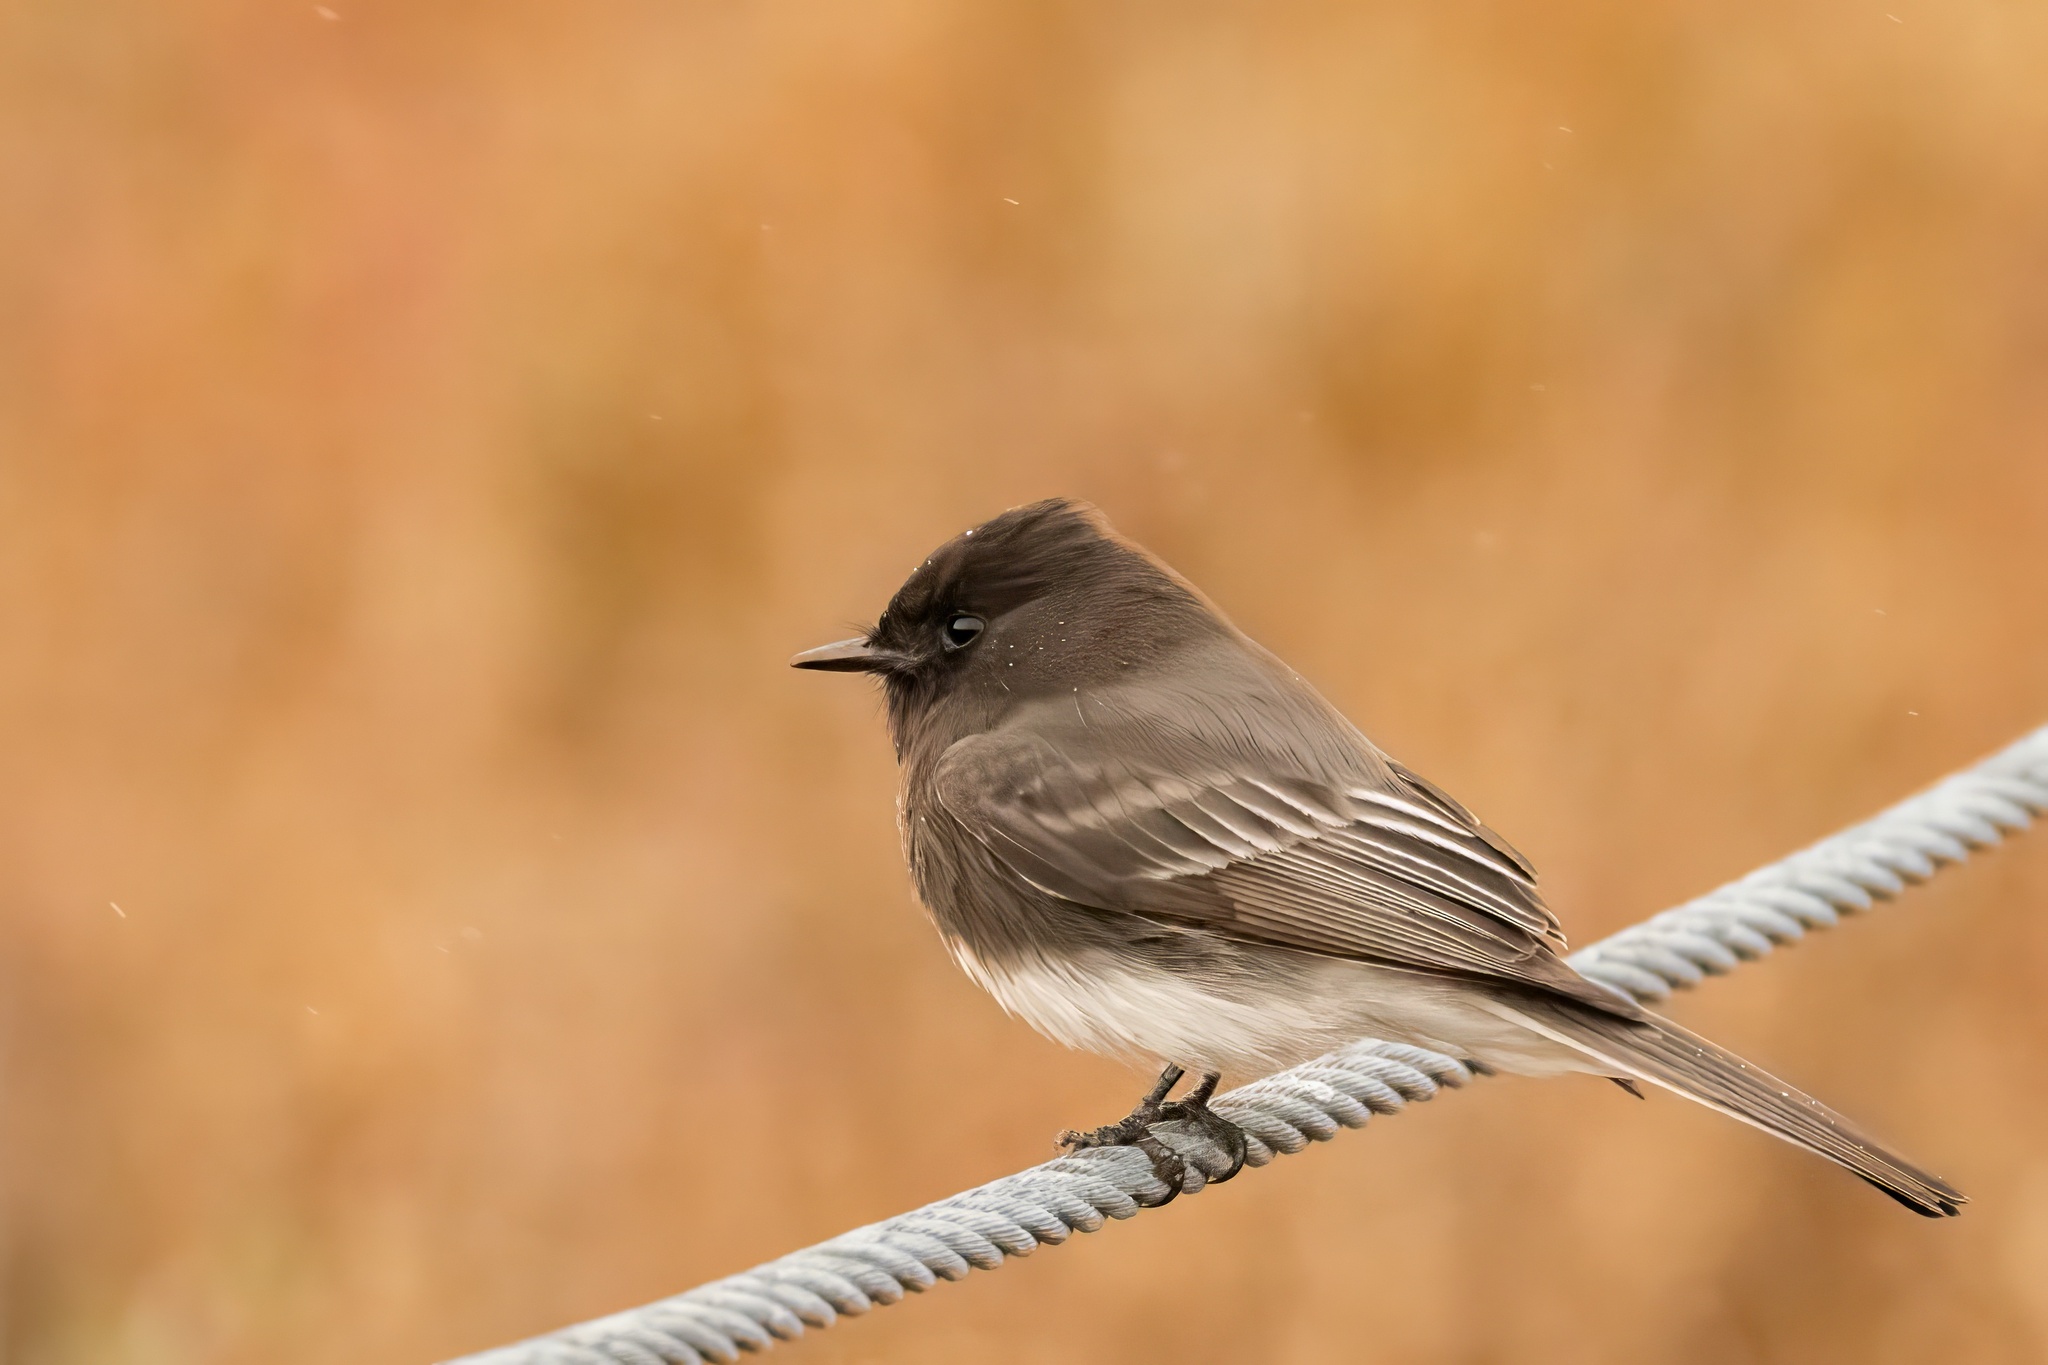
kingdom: Animalia
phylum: Chordata
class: Aves
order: Passeriformes
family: Tyrannidae
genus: Sayornis
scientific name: Sayornis nigricans
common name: Black phoebe
